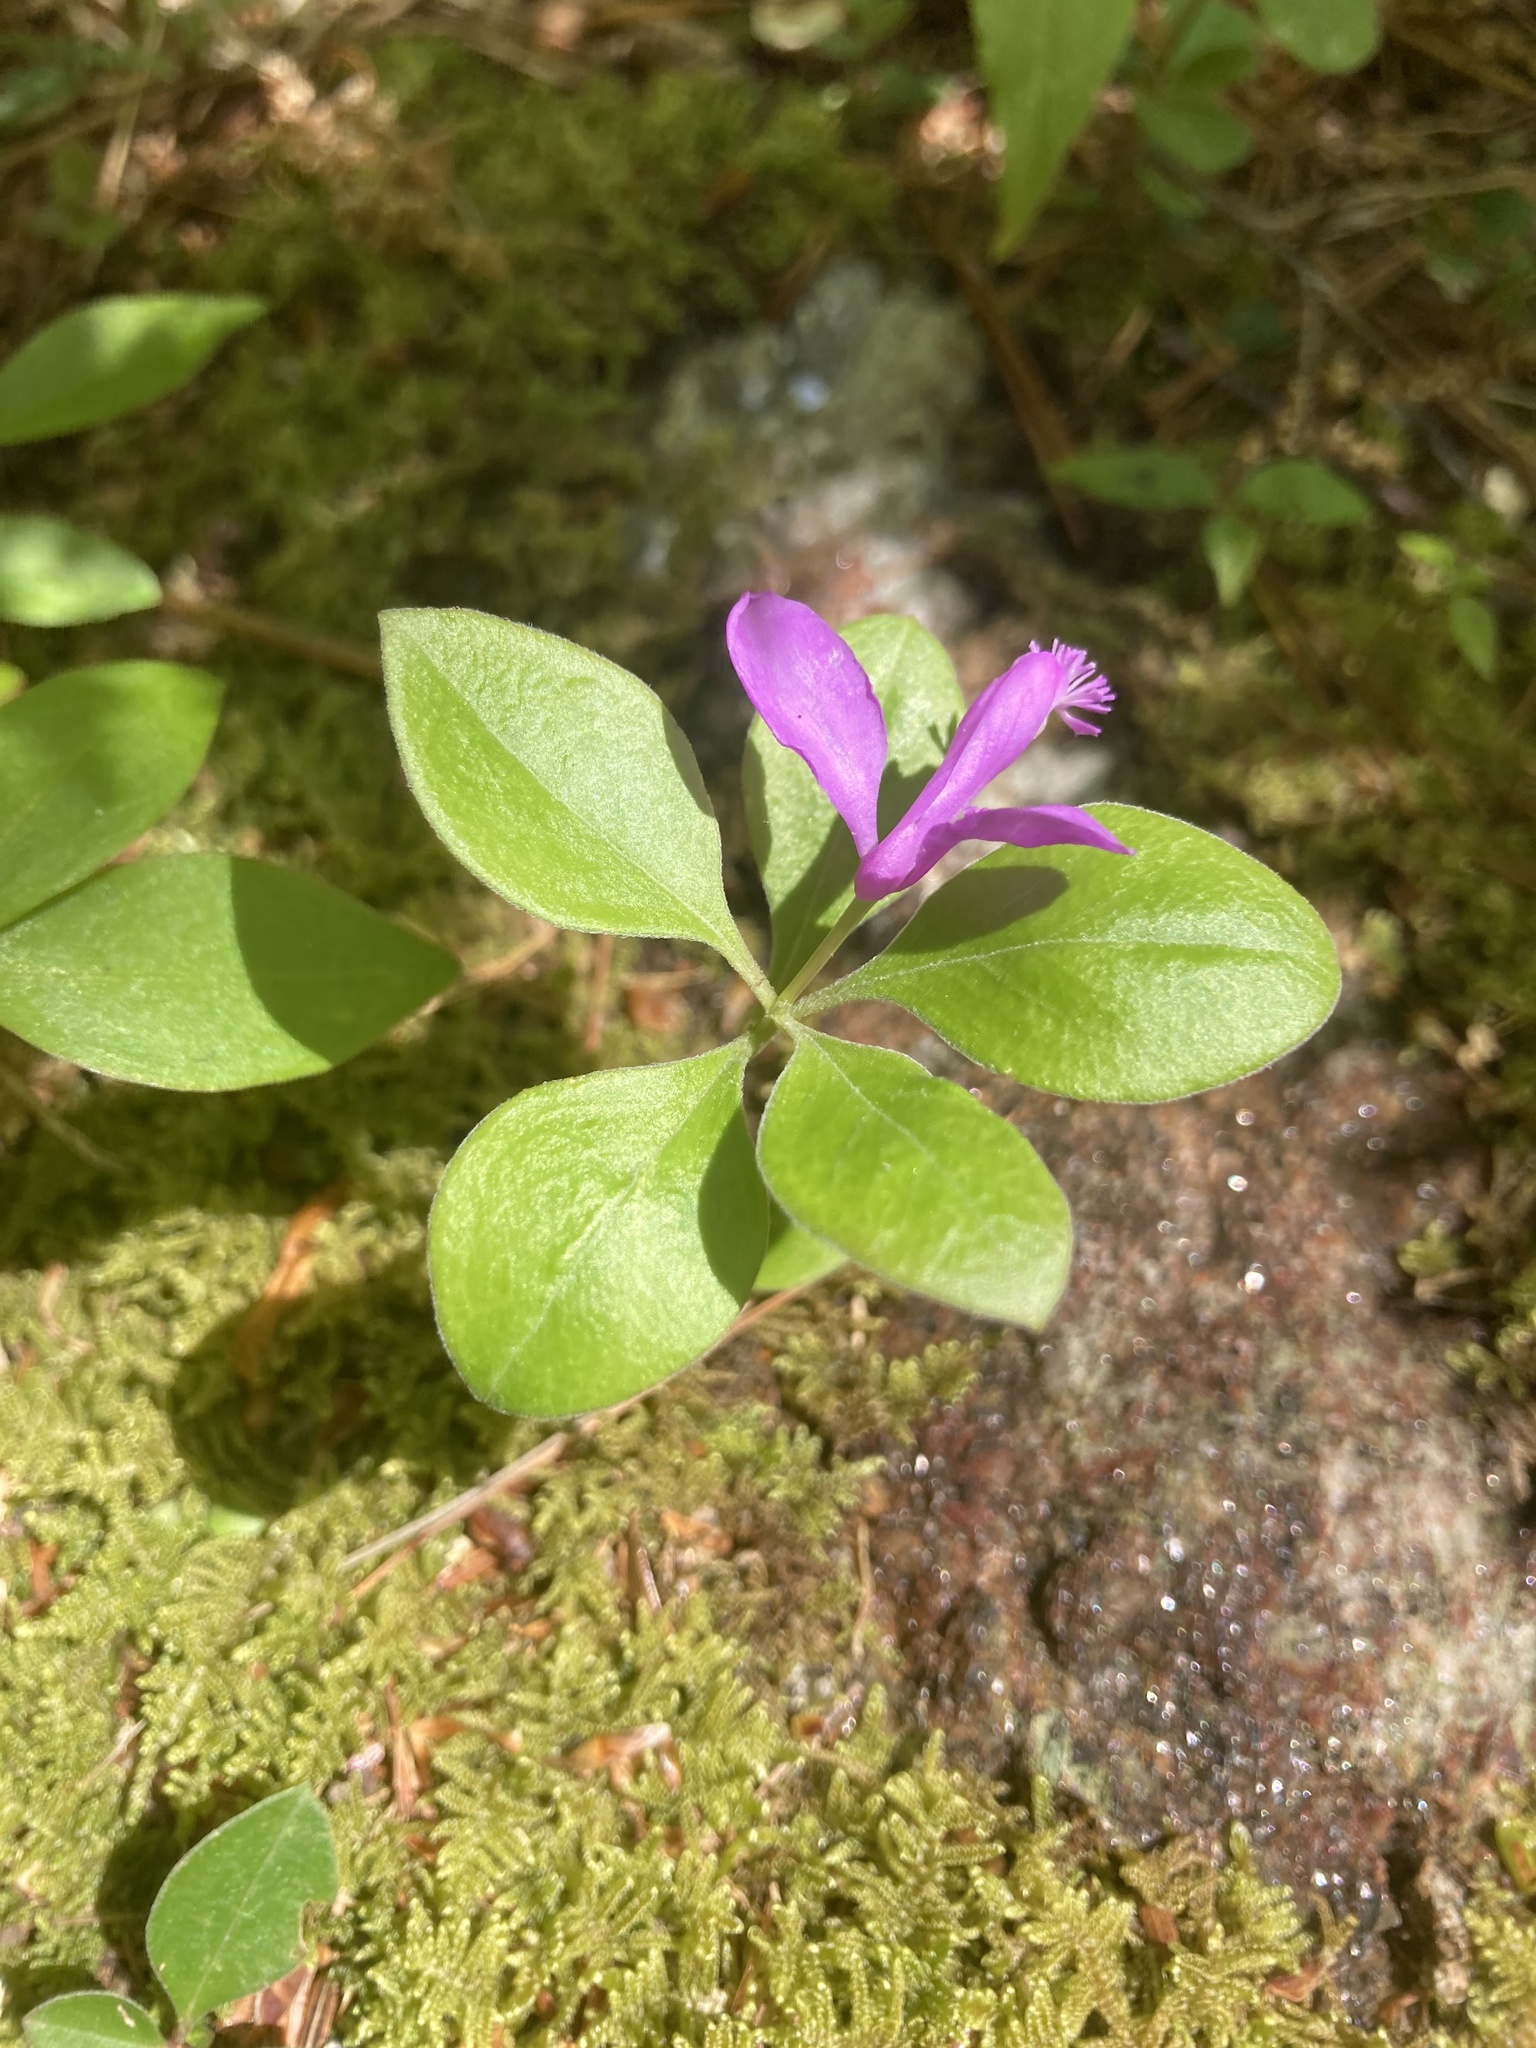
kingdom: Plantae
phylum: Tracheophyta
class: Magnoliopsida
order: Fabales
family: Polygalaceae
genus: Polygaloides
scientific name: Polygaloides paucifolia
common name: Bird-on-the-wing
